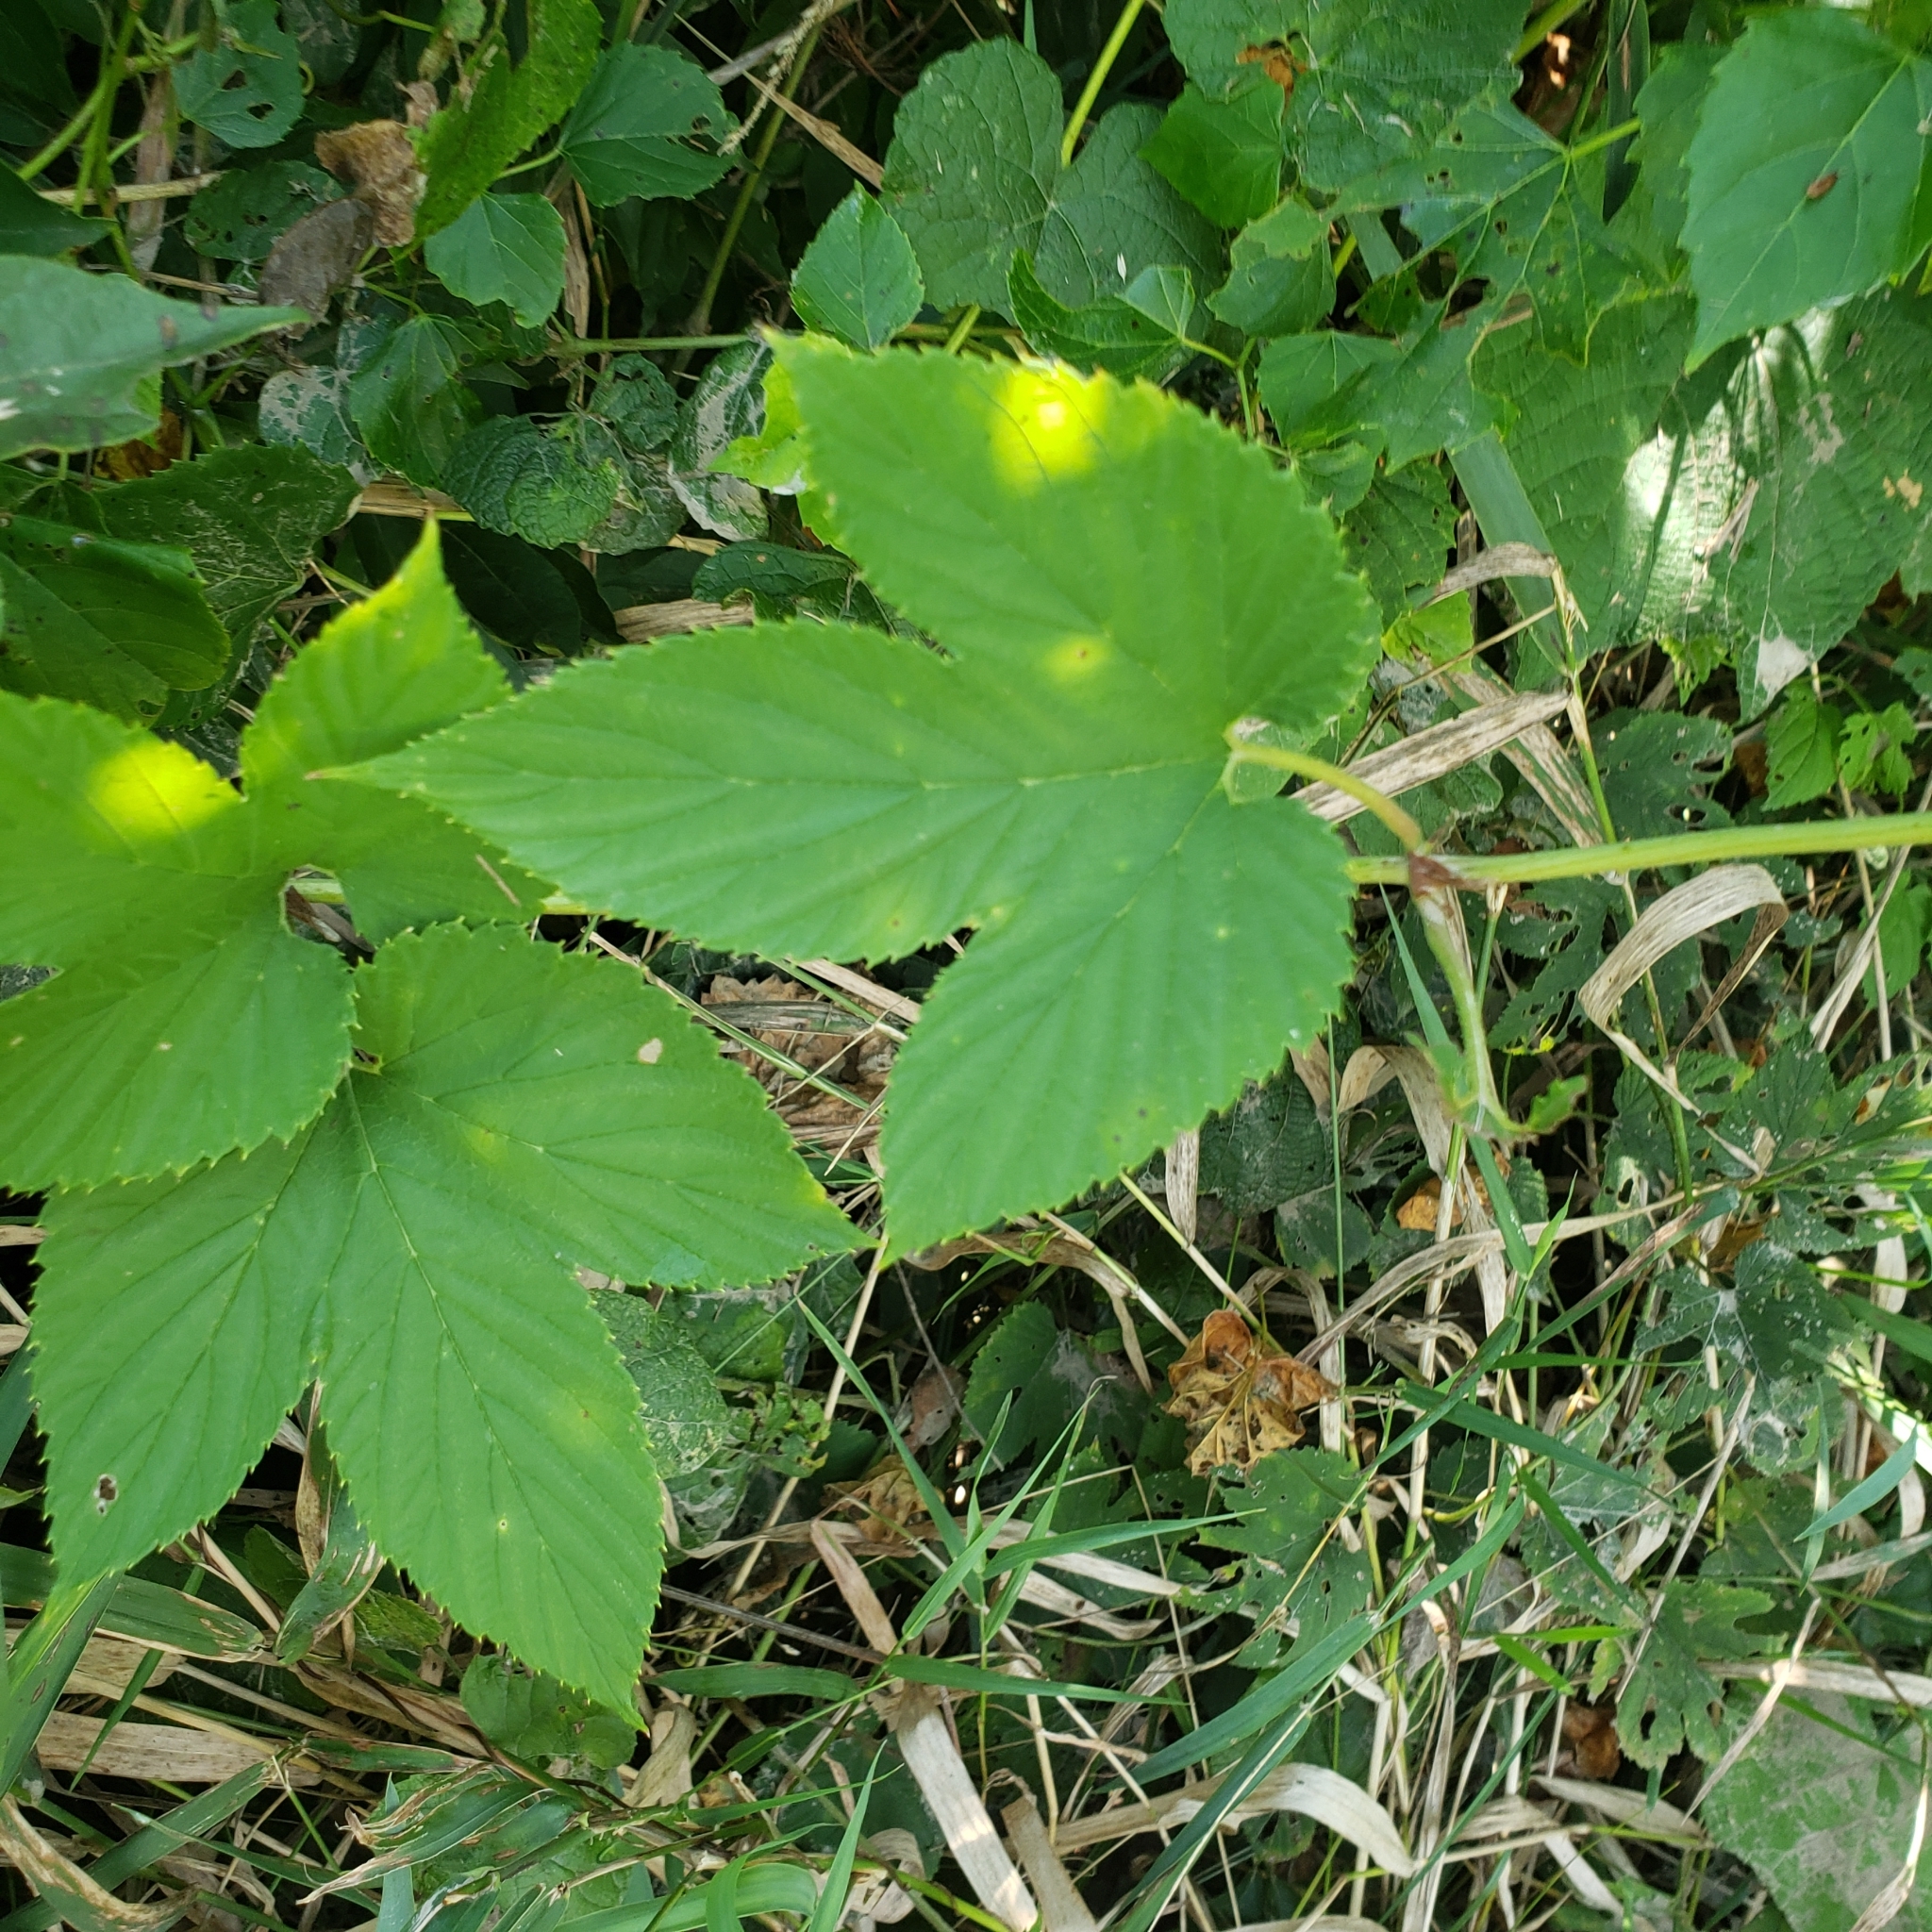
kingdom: Plantae
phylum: Tracheophyta
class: Magnoliopsida
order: Rosales
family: Cannabaceae
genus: Humulus
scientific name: Humulus lupulus
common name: Hop
